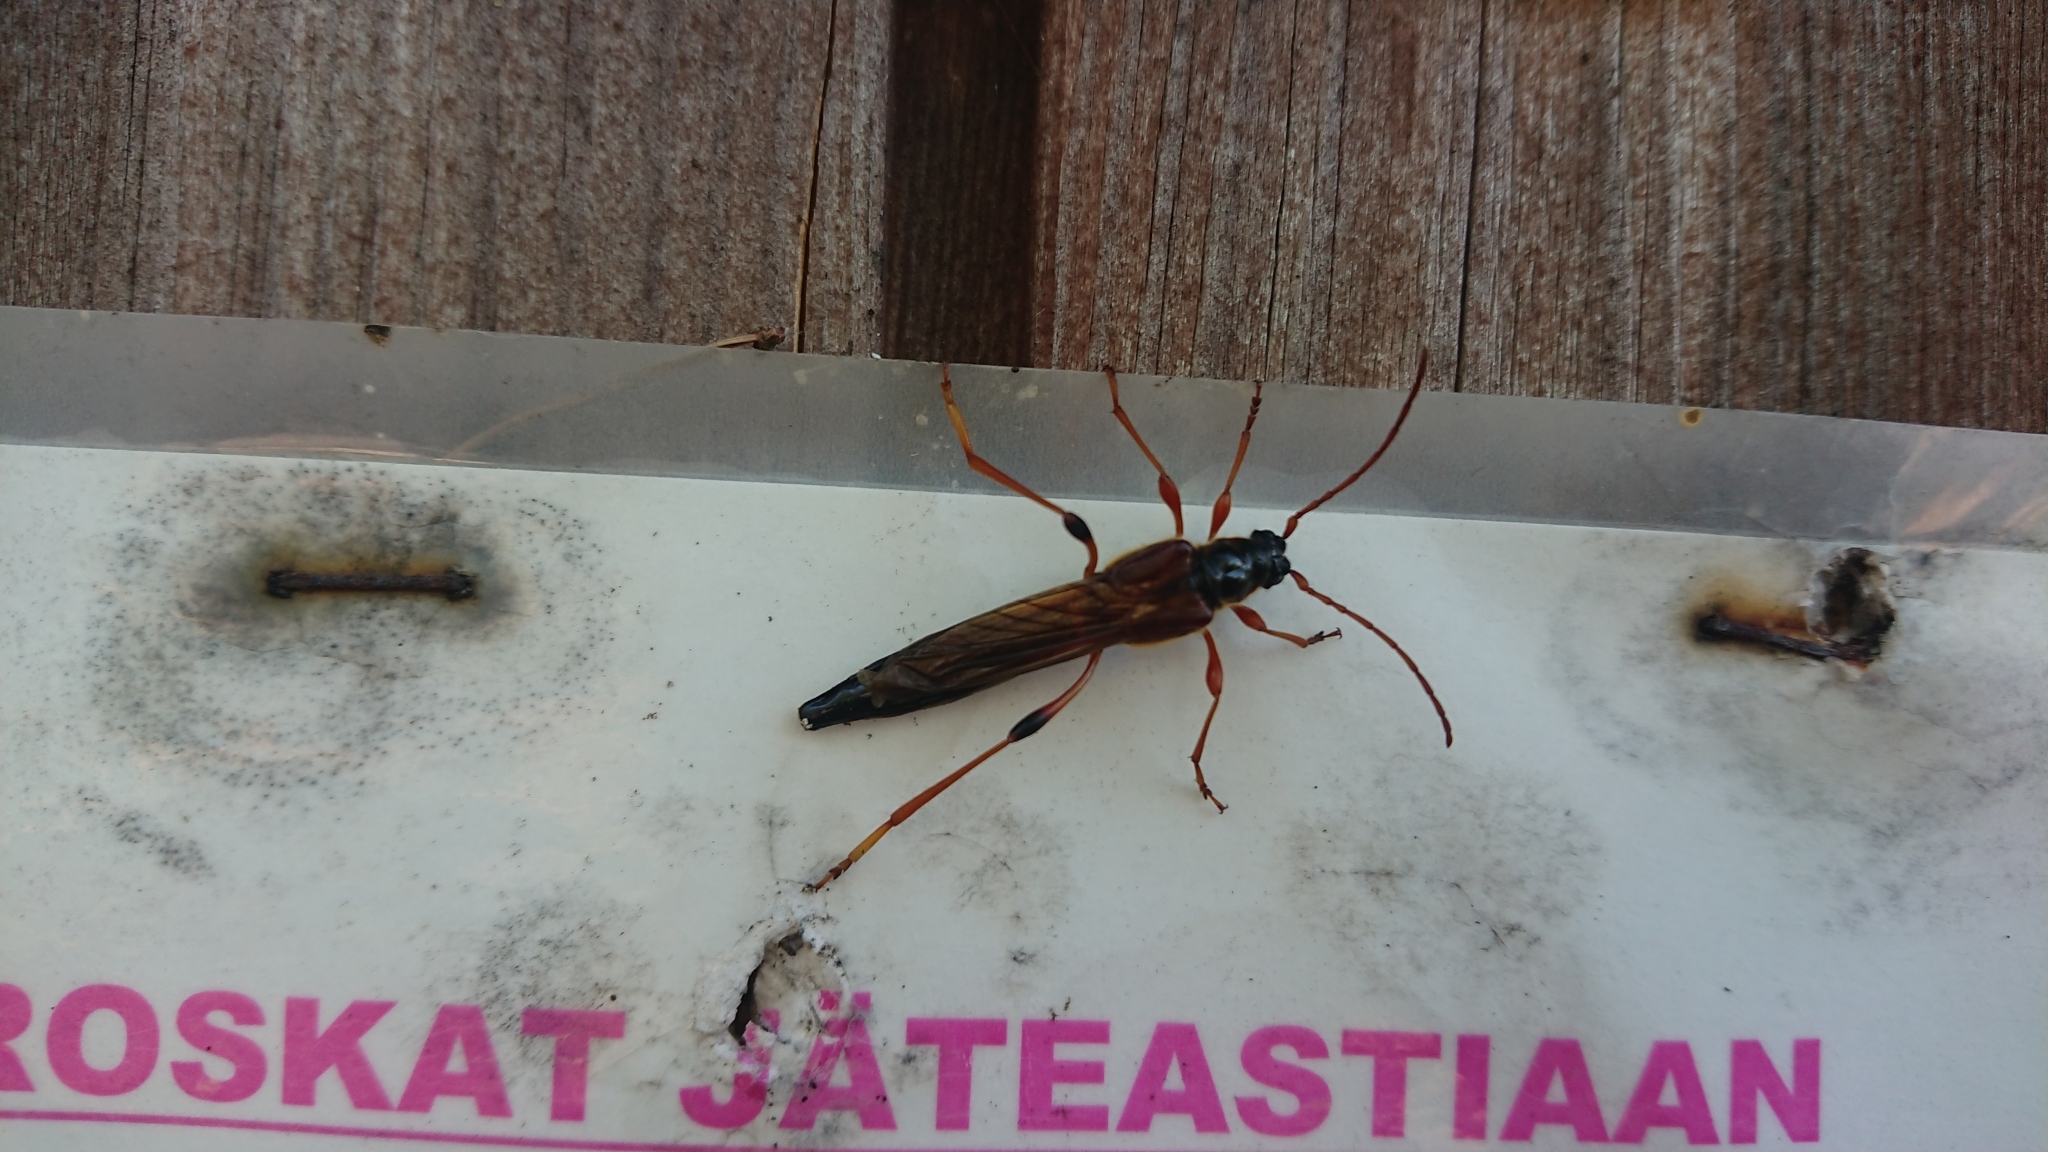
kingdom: Animalia
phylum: Arthropoda
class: Insecta
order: Coleoptera
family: Cerambycidae
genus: Necydalis
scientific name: Necydalis major
